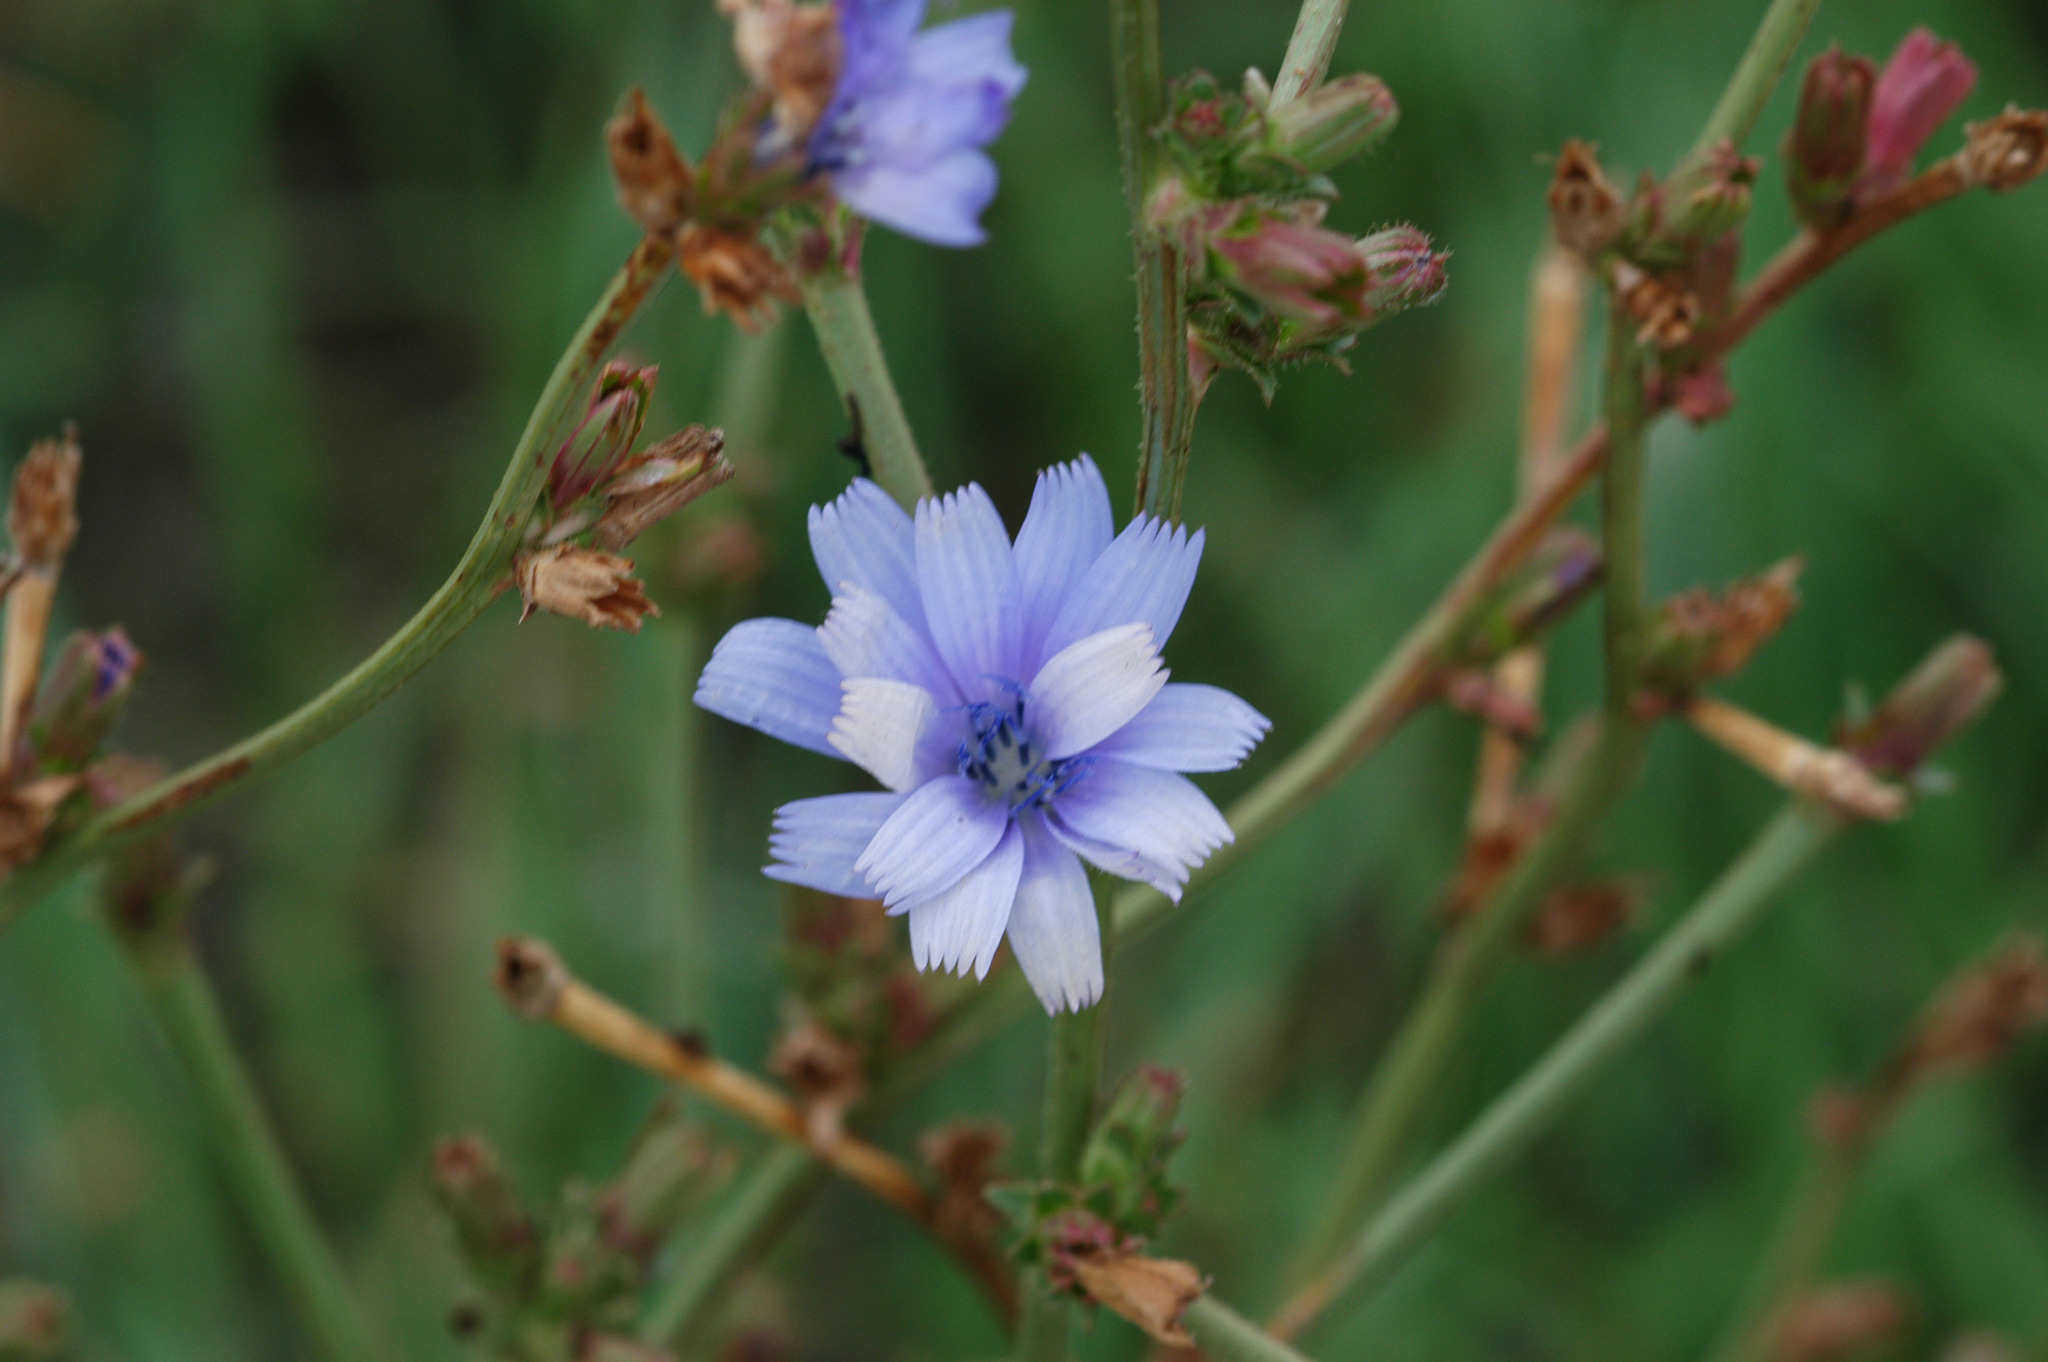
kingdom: Plantae
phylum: Tracheophyta
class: Magnoliopsida
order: Asterales
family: Asteraceae
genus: Cichorium
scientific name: Cichorium intybus
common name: Chicory
